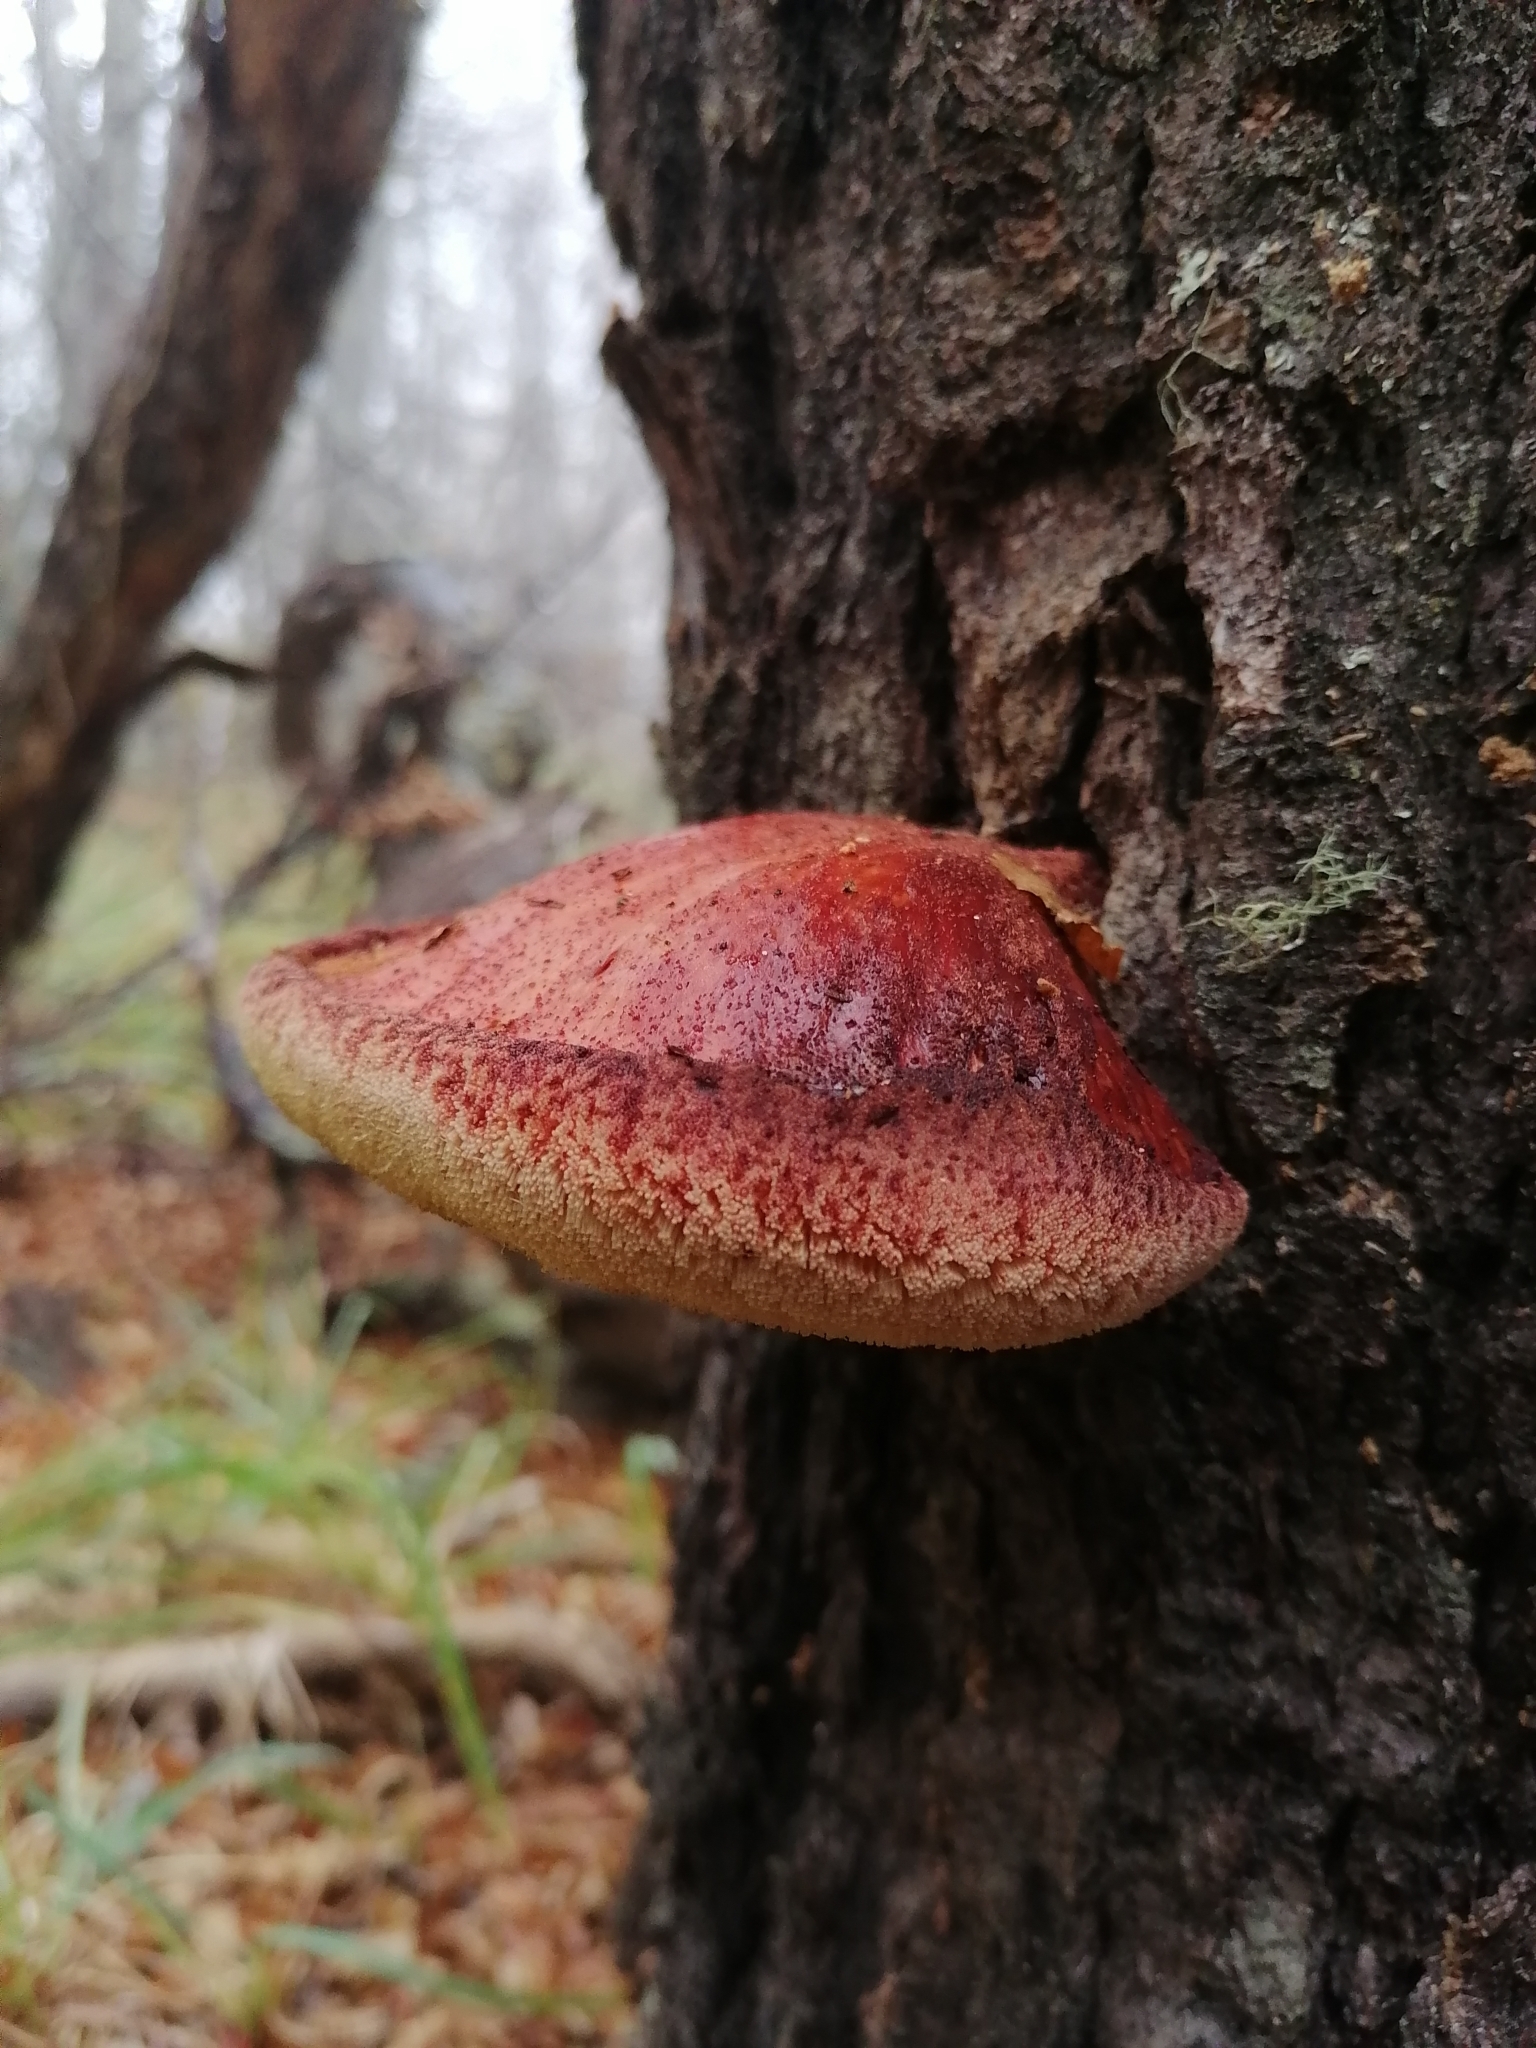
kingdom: Fungi
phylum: Basidiomycota
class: Agaricomycetes
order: Agaricales
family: Fistulinaceae
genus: Fistulina
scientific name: Fistulina antarctica
